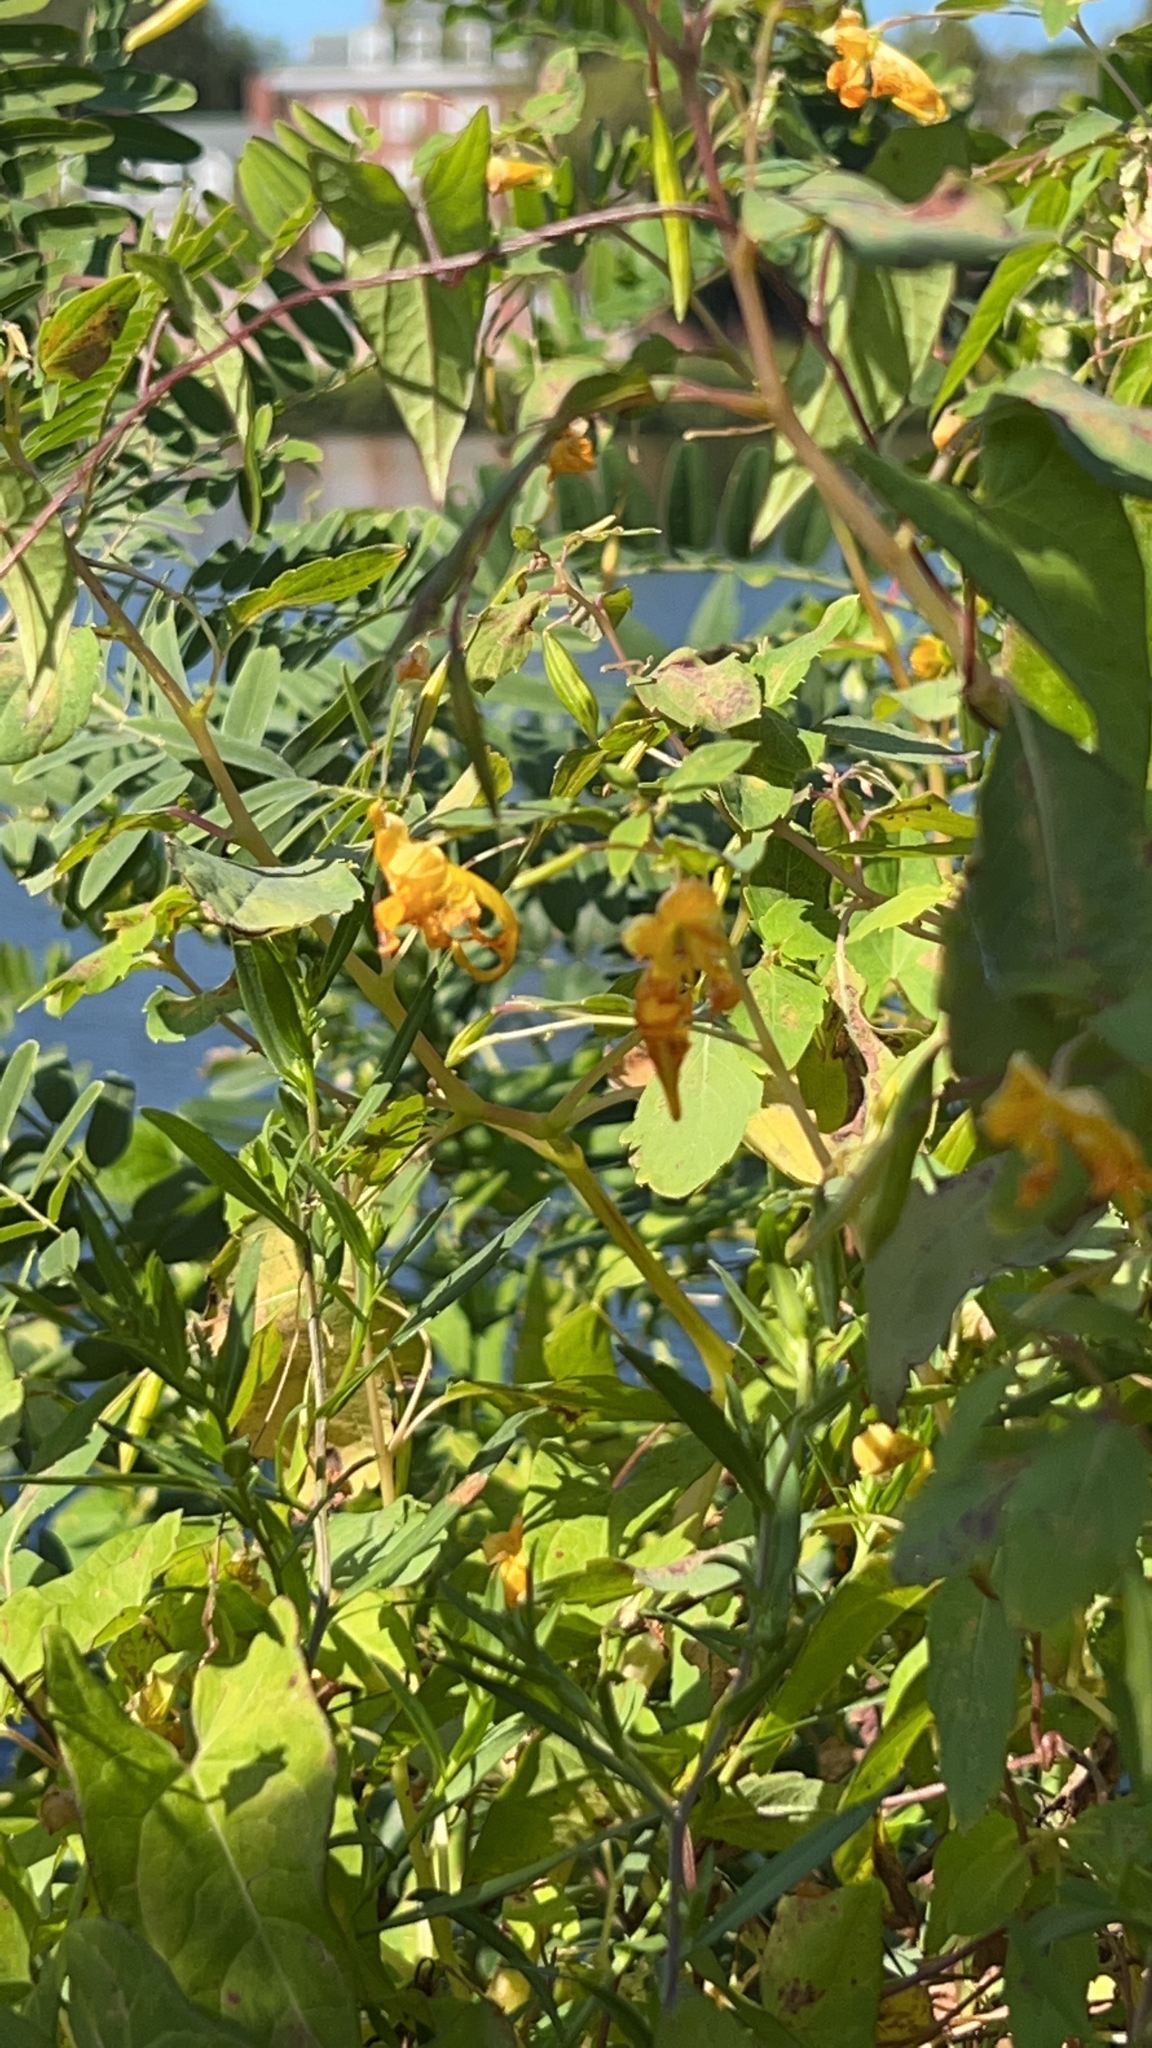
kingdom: Plantae
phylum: Tracheophyta
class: Magnoliopsida
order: Ericales
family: Balsaminaceae
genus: Impatiens
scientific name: Impatiens capensis
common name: Orange balsam
